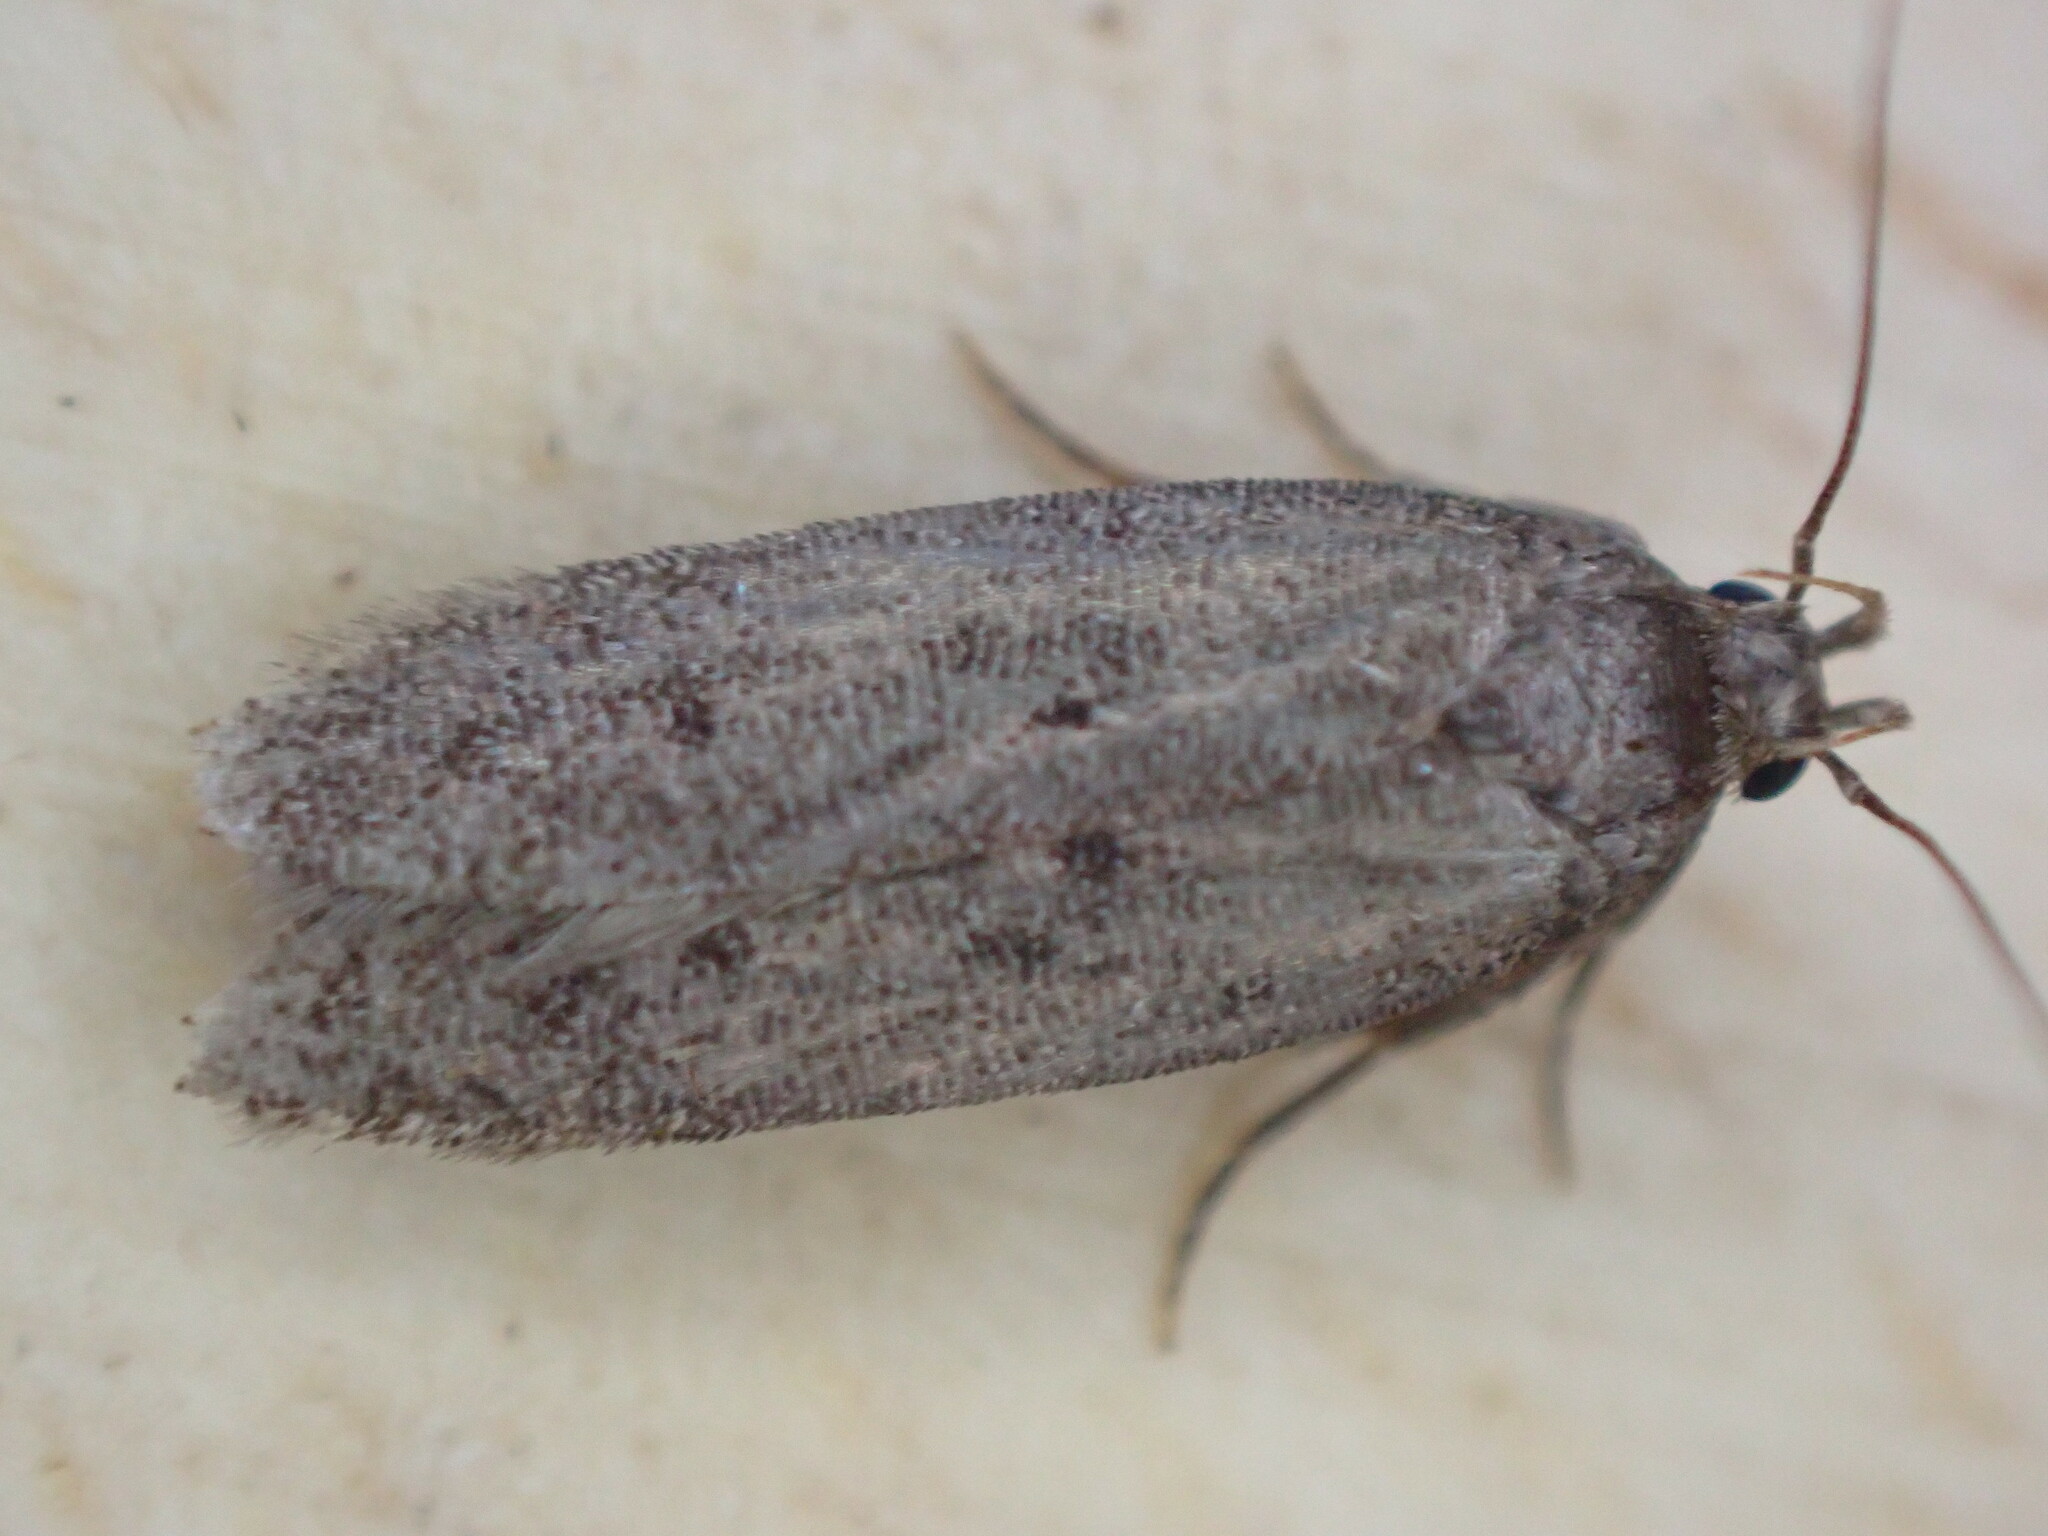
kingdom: Animalia
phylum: Arthropoda
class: Insecta
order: Lepidoptera
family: Oecophoridae
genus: Hofmannophila
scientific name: Hofmannophila pseudospretella
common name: Brown house moth
